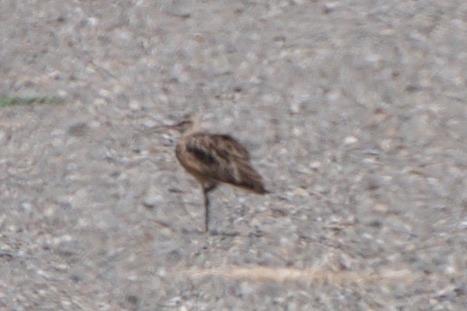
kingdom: Animalia
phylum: Chordata
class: Aves
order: Charadriiformes
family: Scolopacidae
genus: Numenius
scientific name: Numenius americanus
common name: Long-billed curlew
